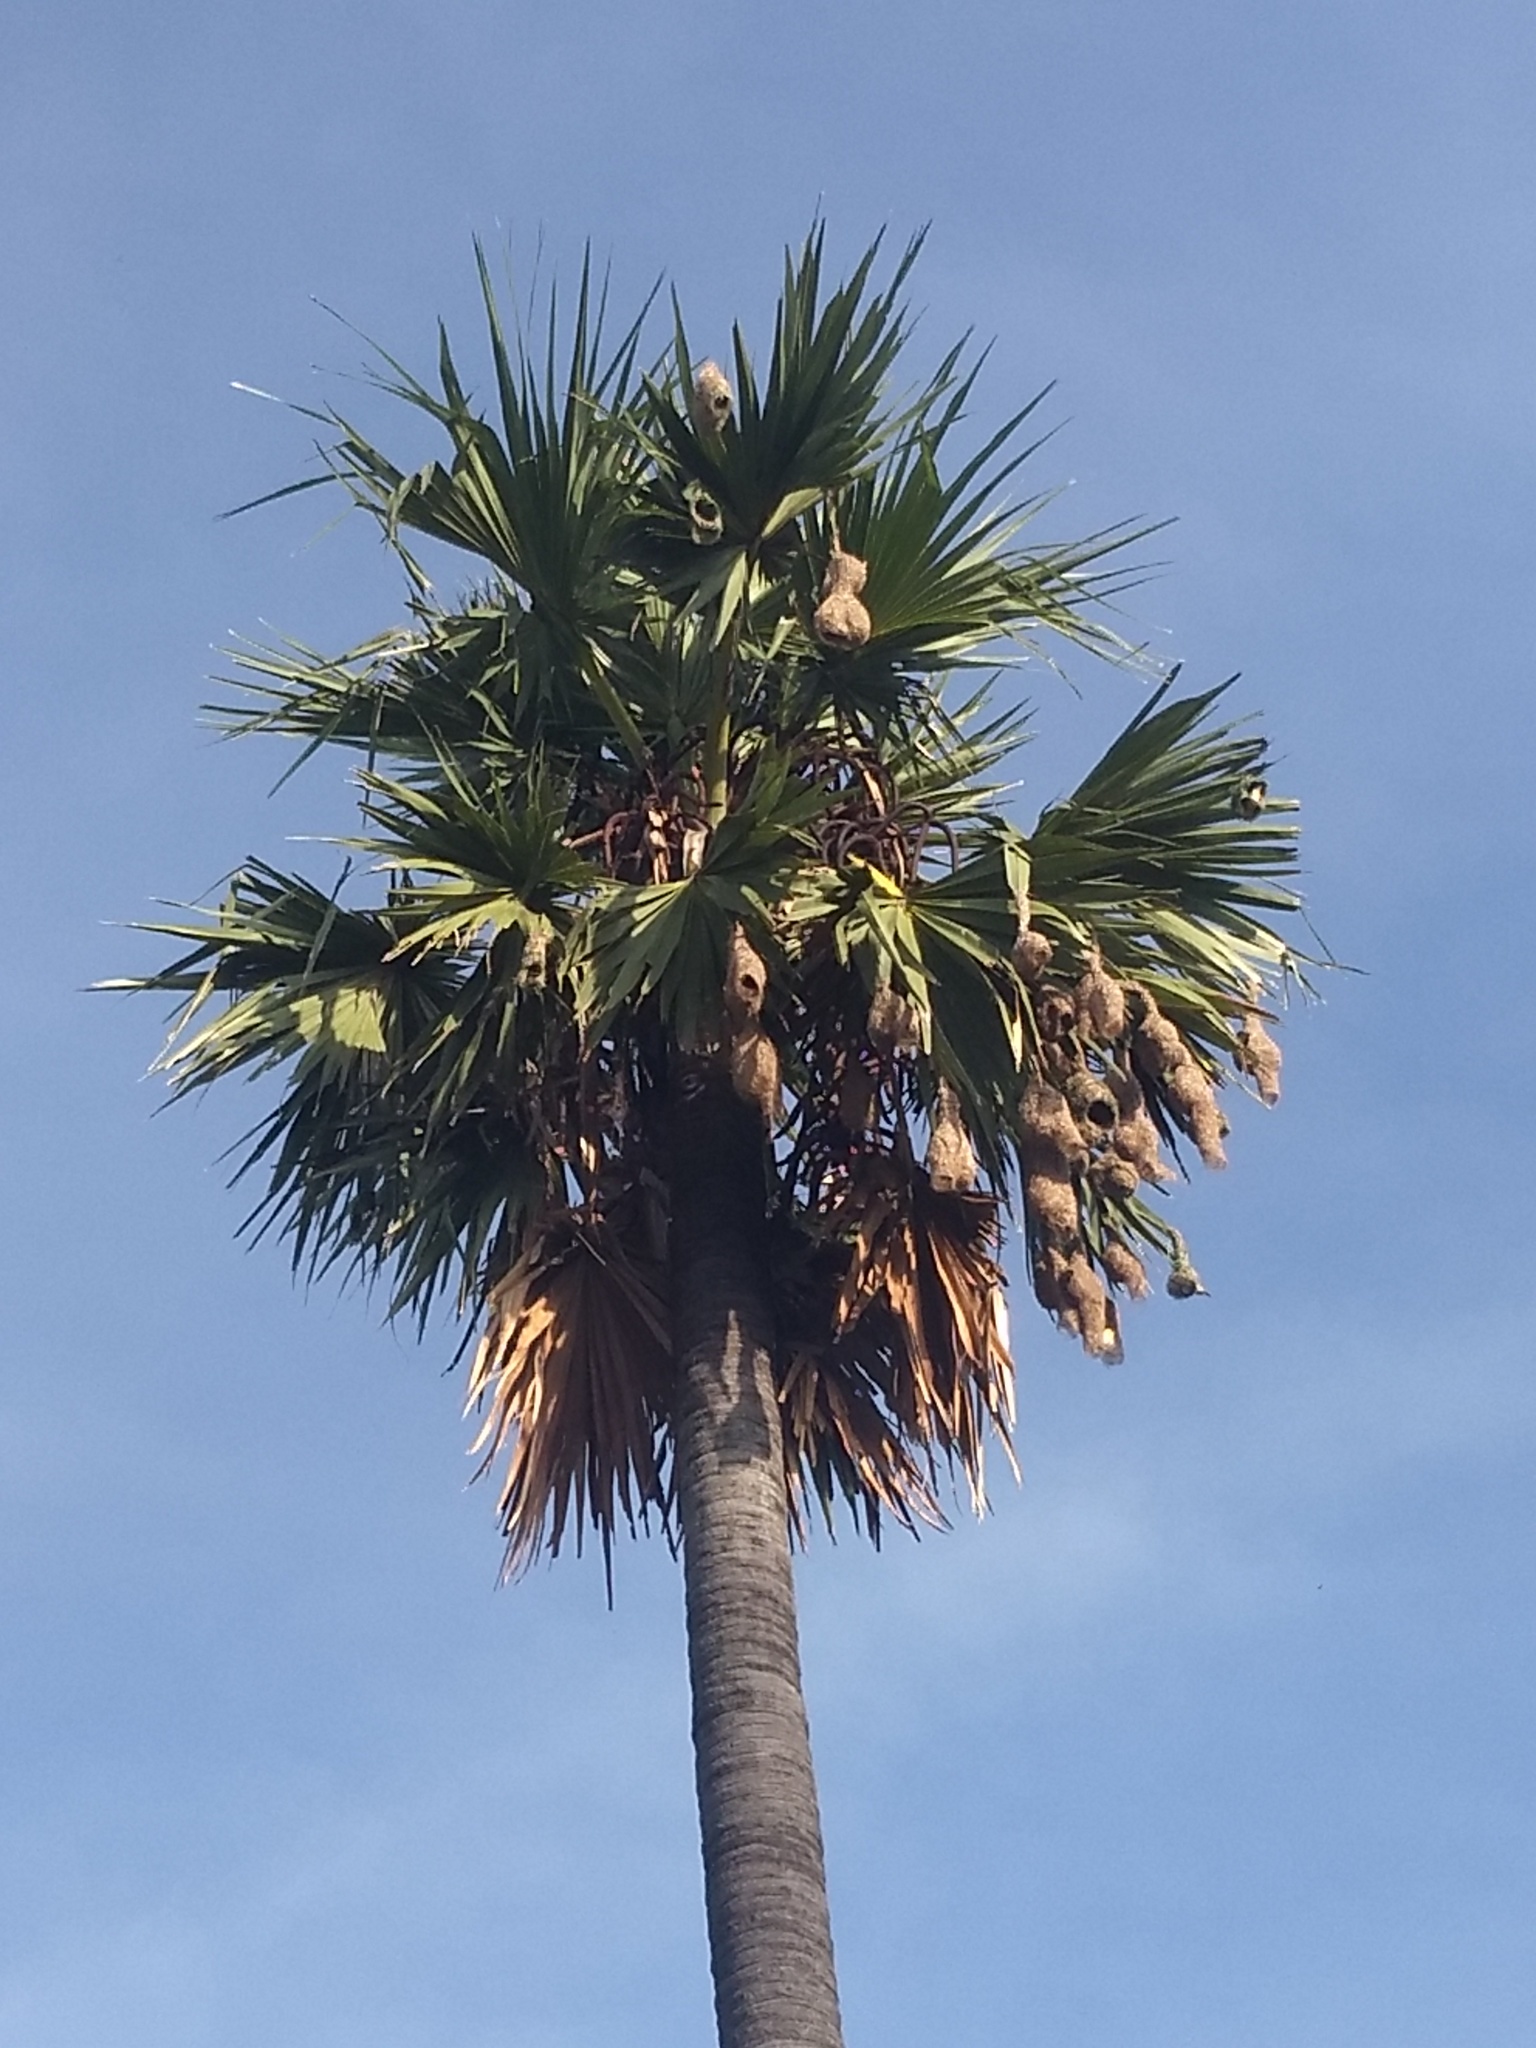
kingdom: Animalia
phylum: Chordata
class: Aves
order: Passeriformes
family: Ploceidae
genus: Ploceus
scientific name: Ploceus philippinus
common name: Baya weaver
